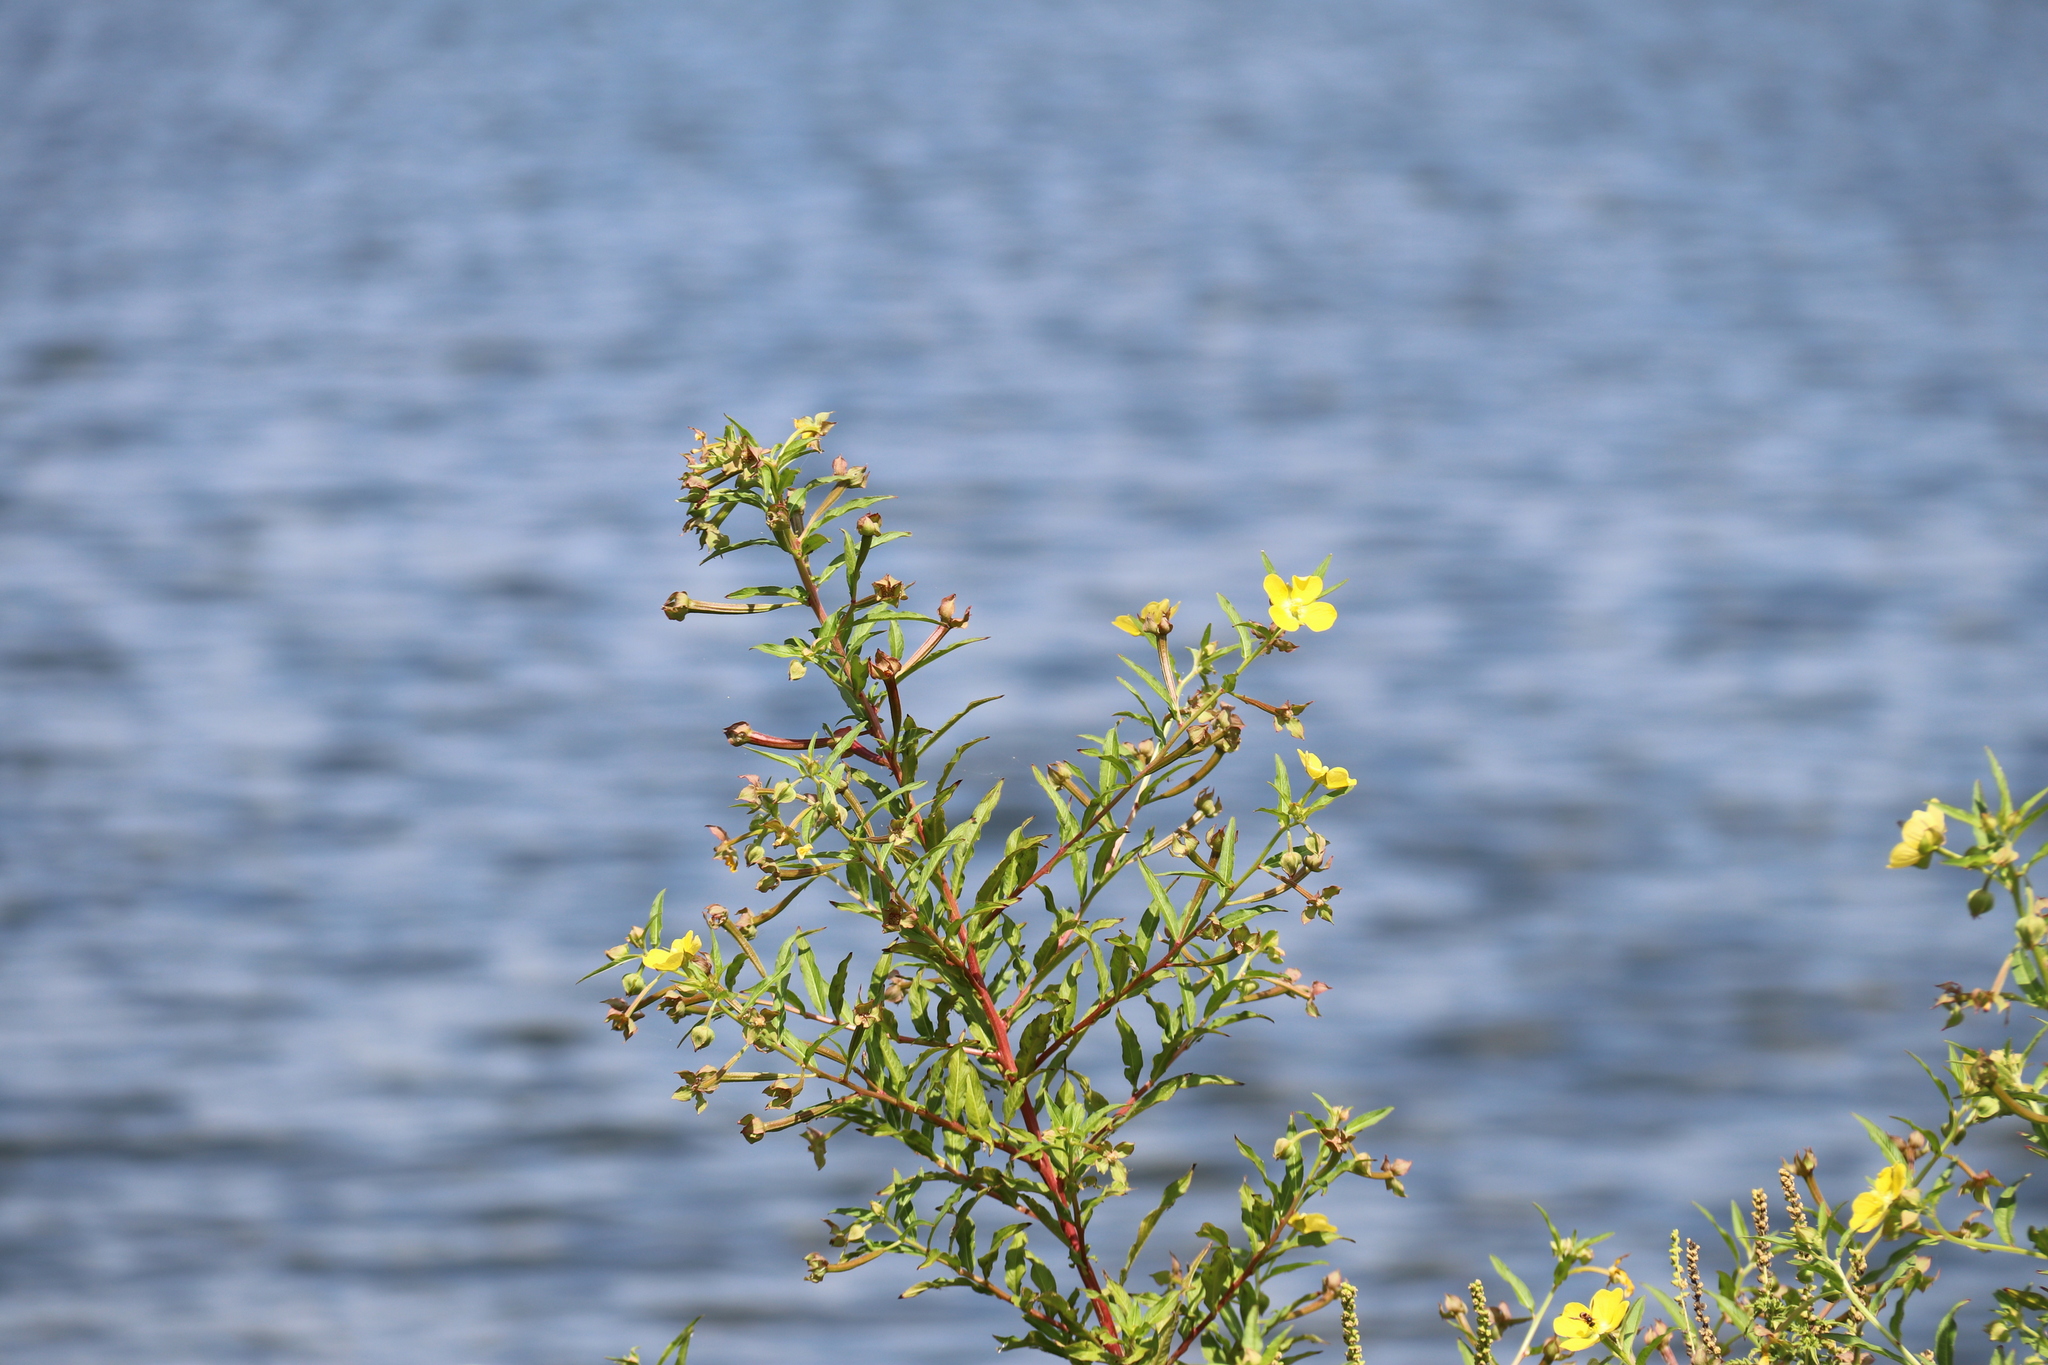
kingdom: Plantae
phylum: Tracheophyta
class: Magnoliopsida
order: Myrtales
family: Onagraceae
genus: Ludwigia
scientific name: Ludwigia octovalvis
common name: Water-primrose
